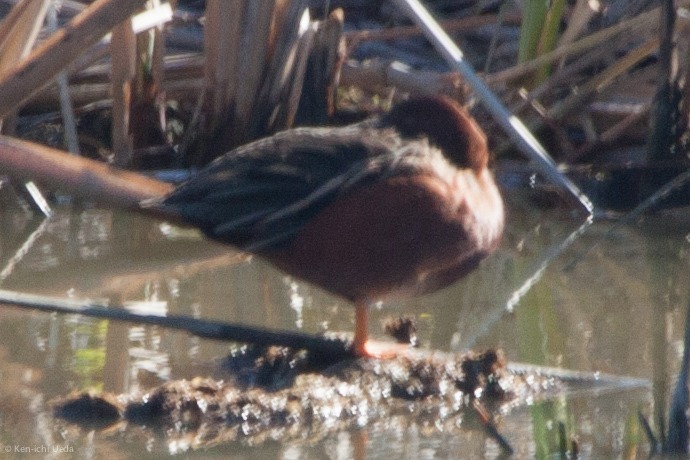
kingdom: Animalia
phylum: Chordata
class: Aves
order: Anseriformes
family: Anatidae
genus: Spatula
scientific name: Spatula cyanoptera
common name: Cinnamon teal
